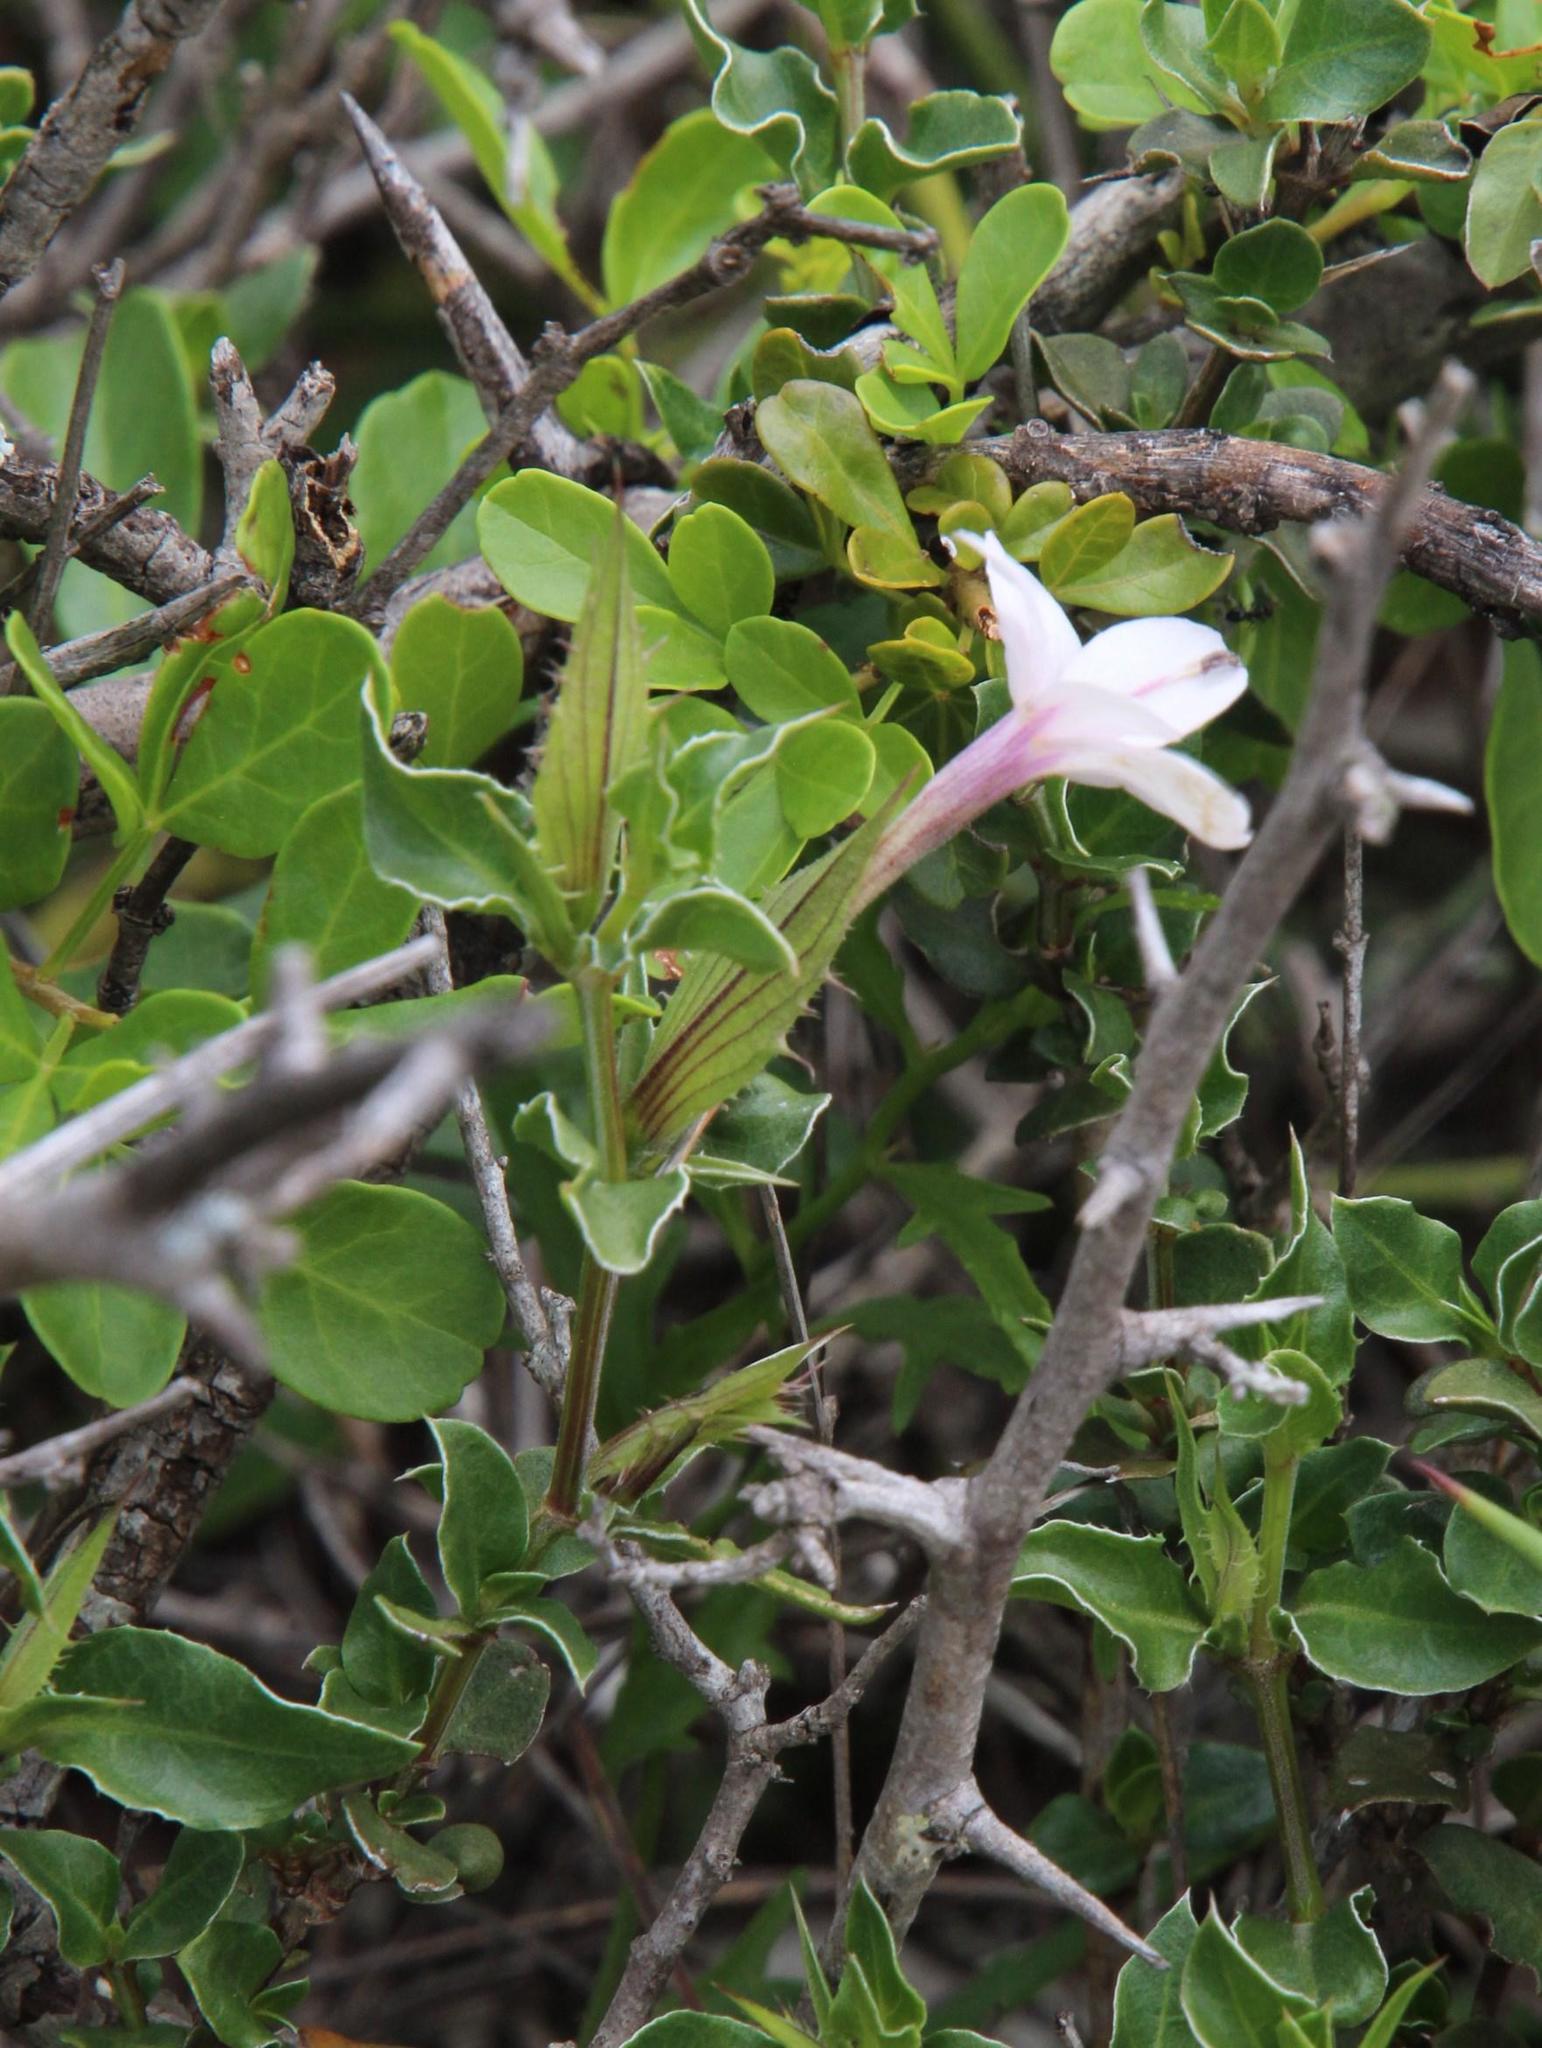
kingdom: Plantae
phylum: Tracheophyta
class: Magnoliopsida
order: Lamiales
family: Acanthaceae
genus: Barleria
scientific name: Barleria irritans
